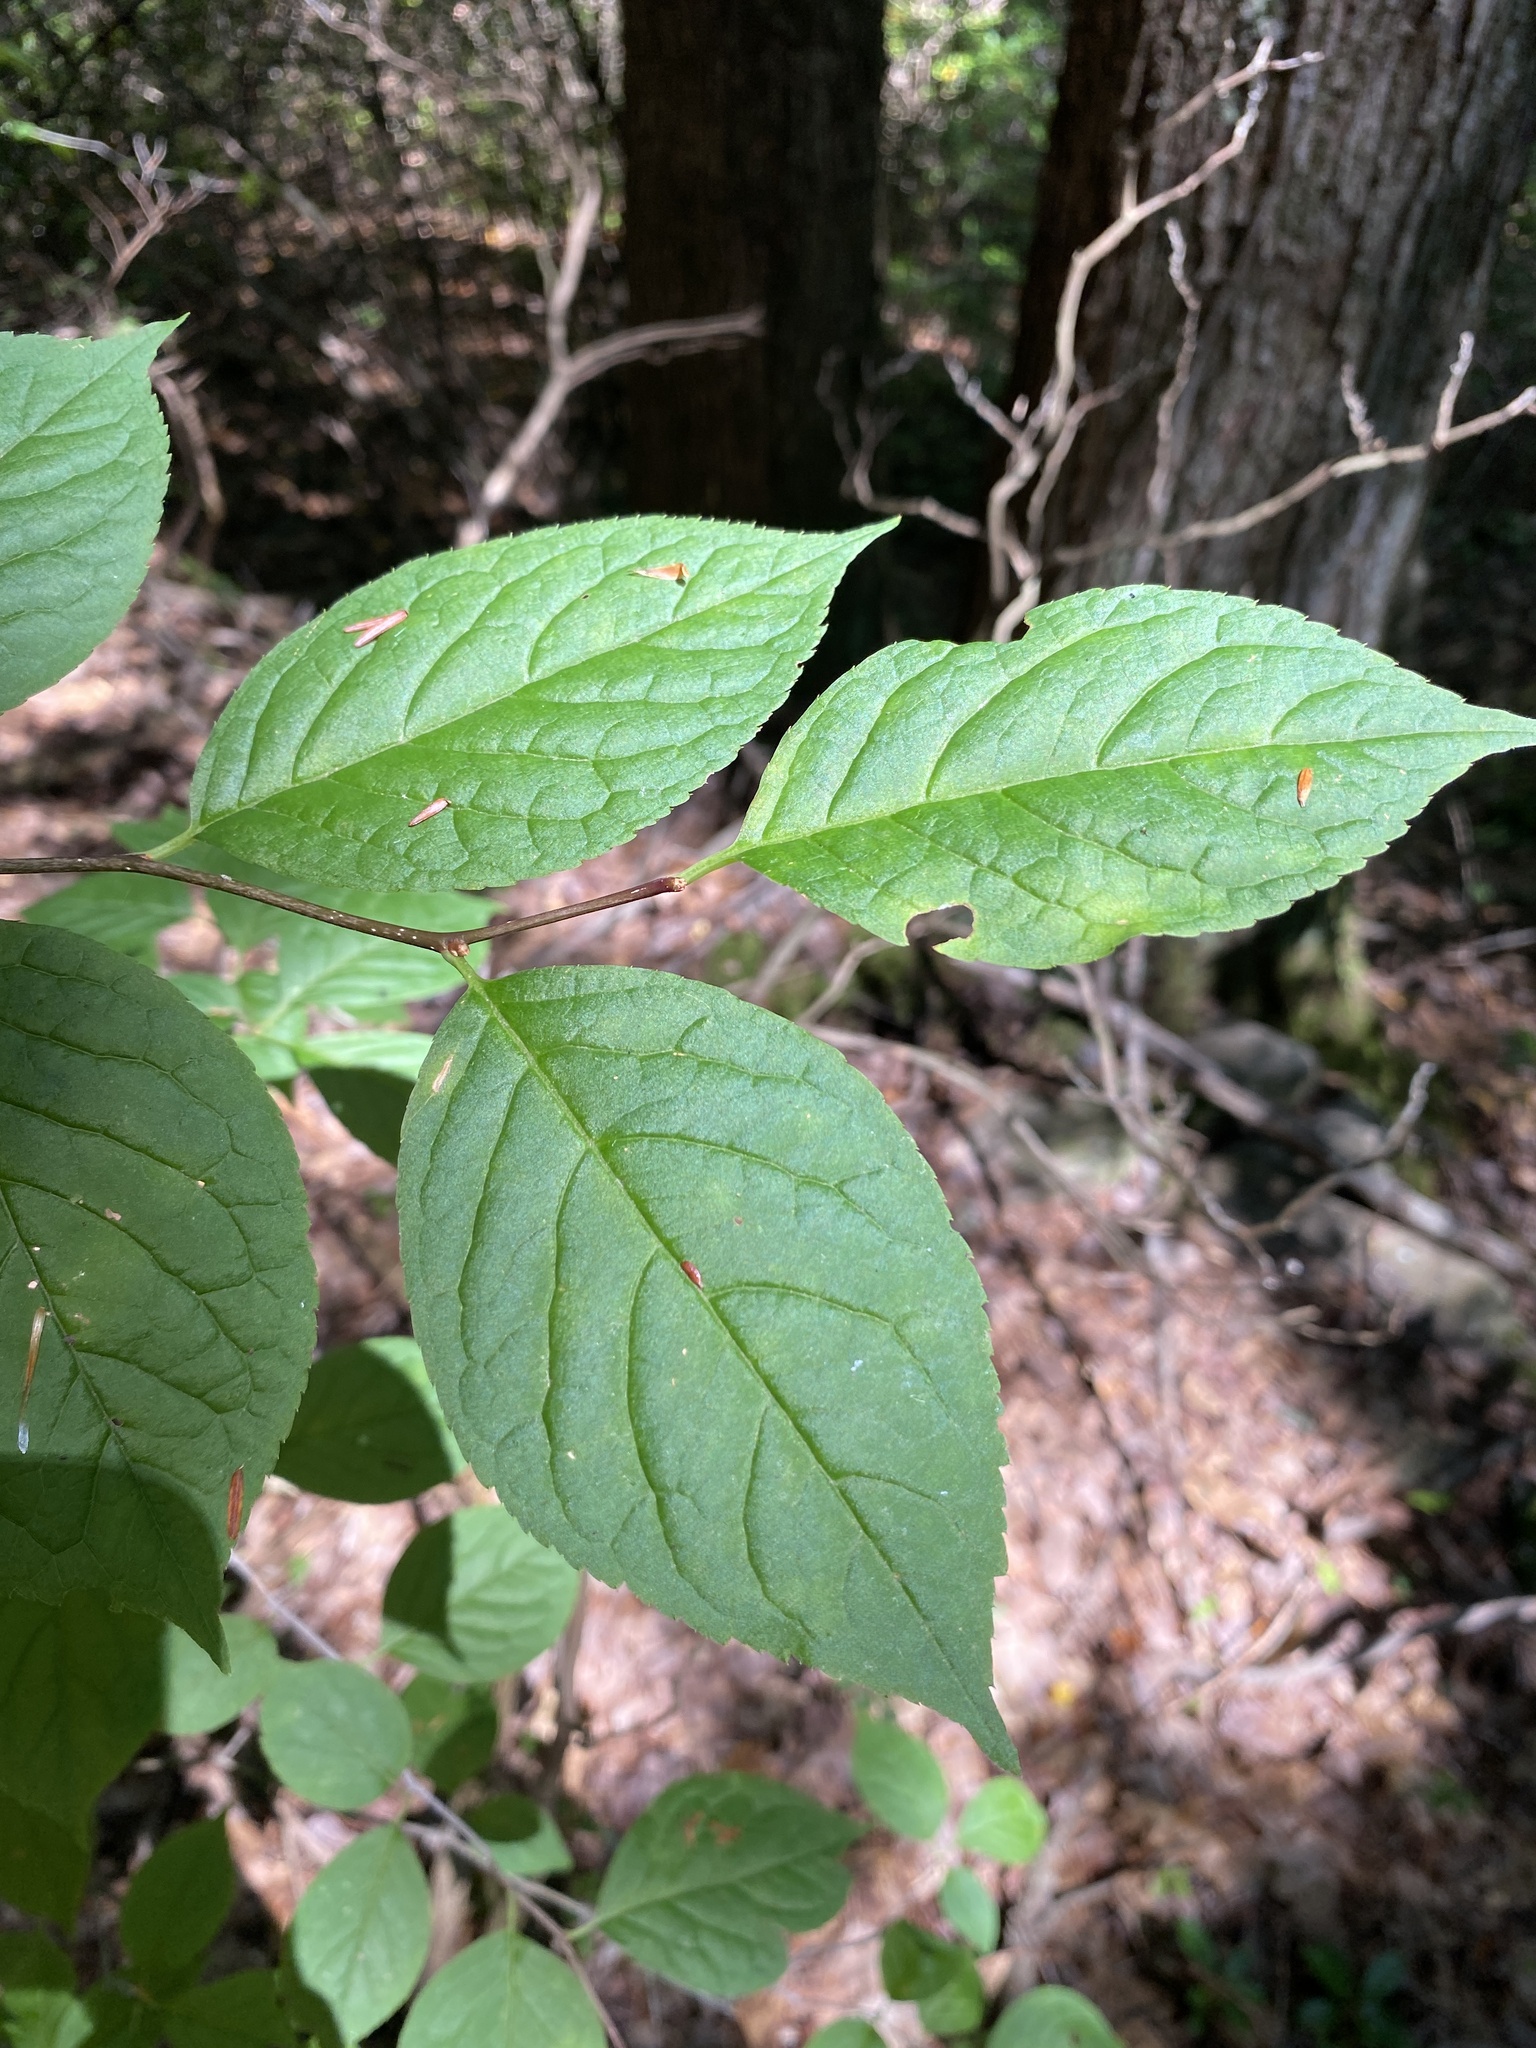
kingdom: Plantae
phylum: Tracheophyta
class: Magnoliopsida
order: Aquifoliales
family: Aquifoliaceae
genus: Ilex
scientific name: Ilex montana
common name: Mountain winterberry
